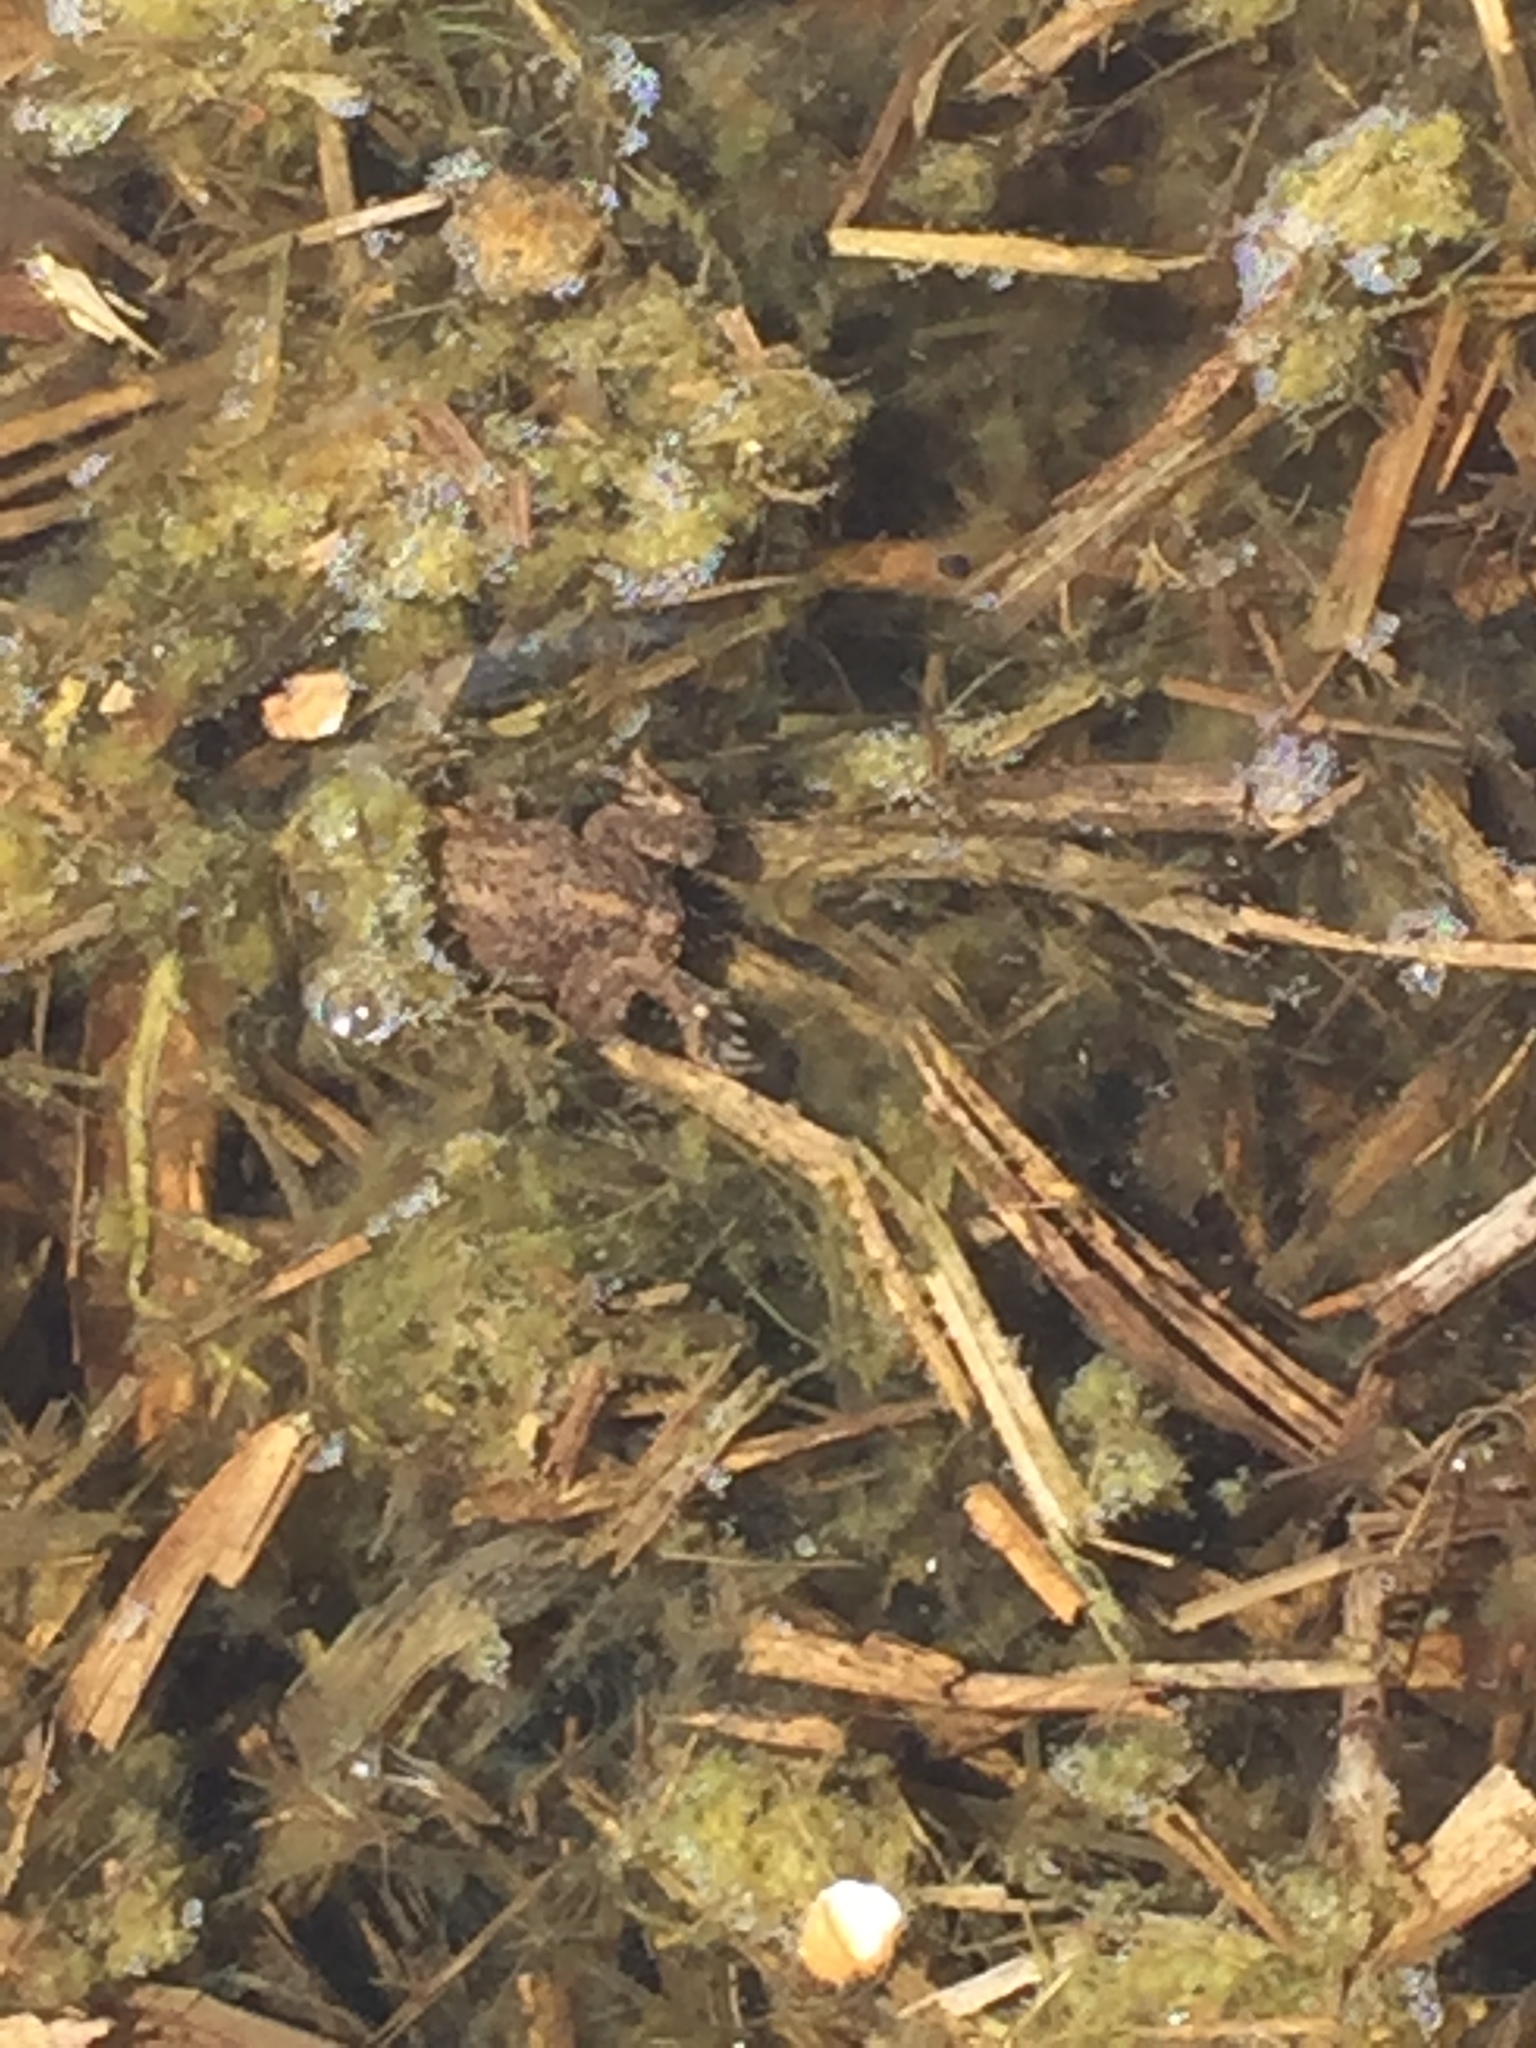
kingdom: Animalia
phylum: Chordata
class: Amphibia
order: Anura
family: Bufonidae
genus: Bufo
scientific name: Bufo bufo
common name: Common toad
